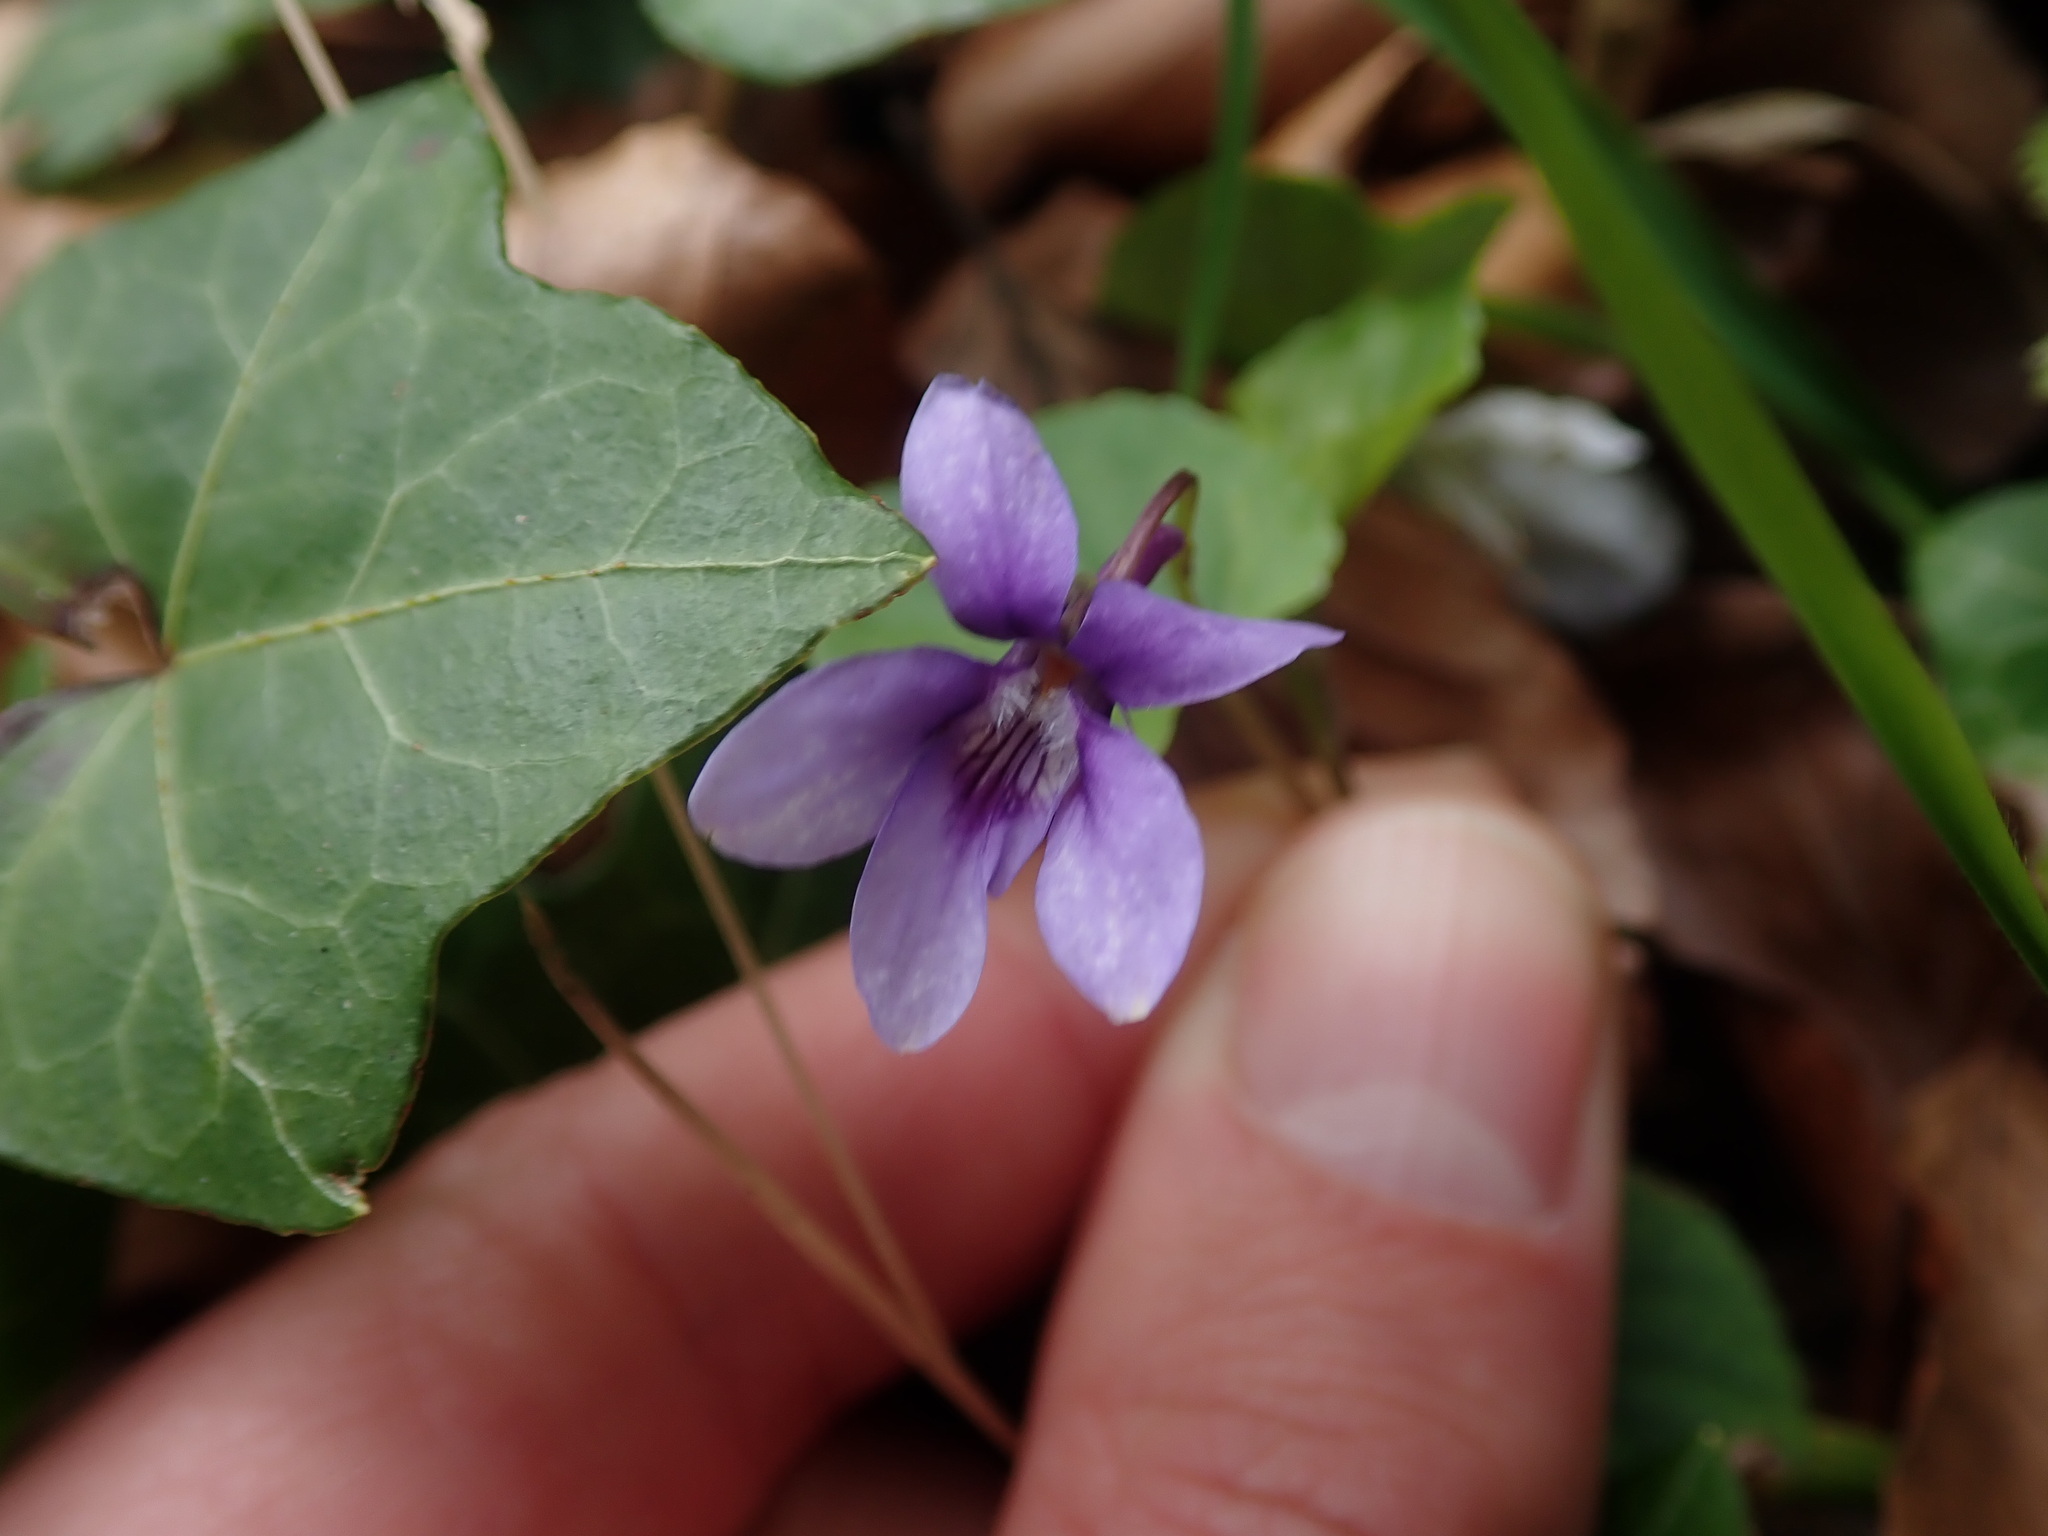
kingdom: Plantae
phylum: Tracheophyta
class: Magnoliopsida
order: Malpighiales
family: Violaceae
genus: Viola
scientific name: Viola reichenbachiana
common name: Early dog-violet
